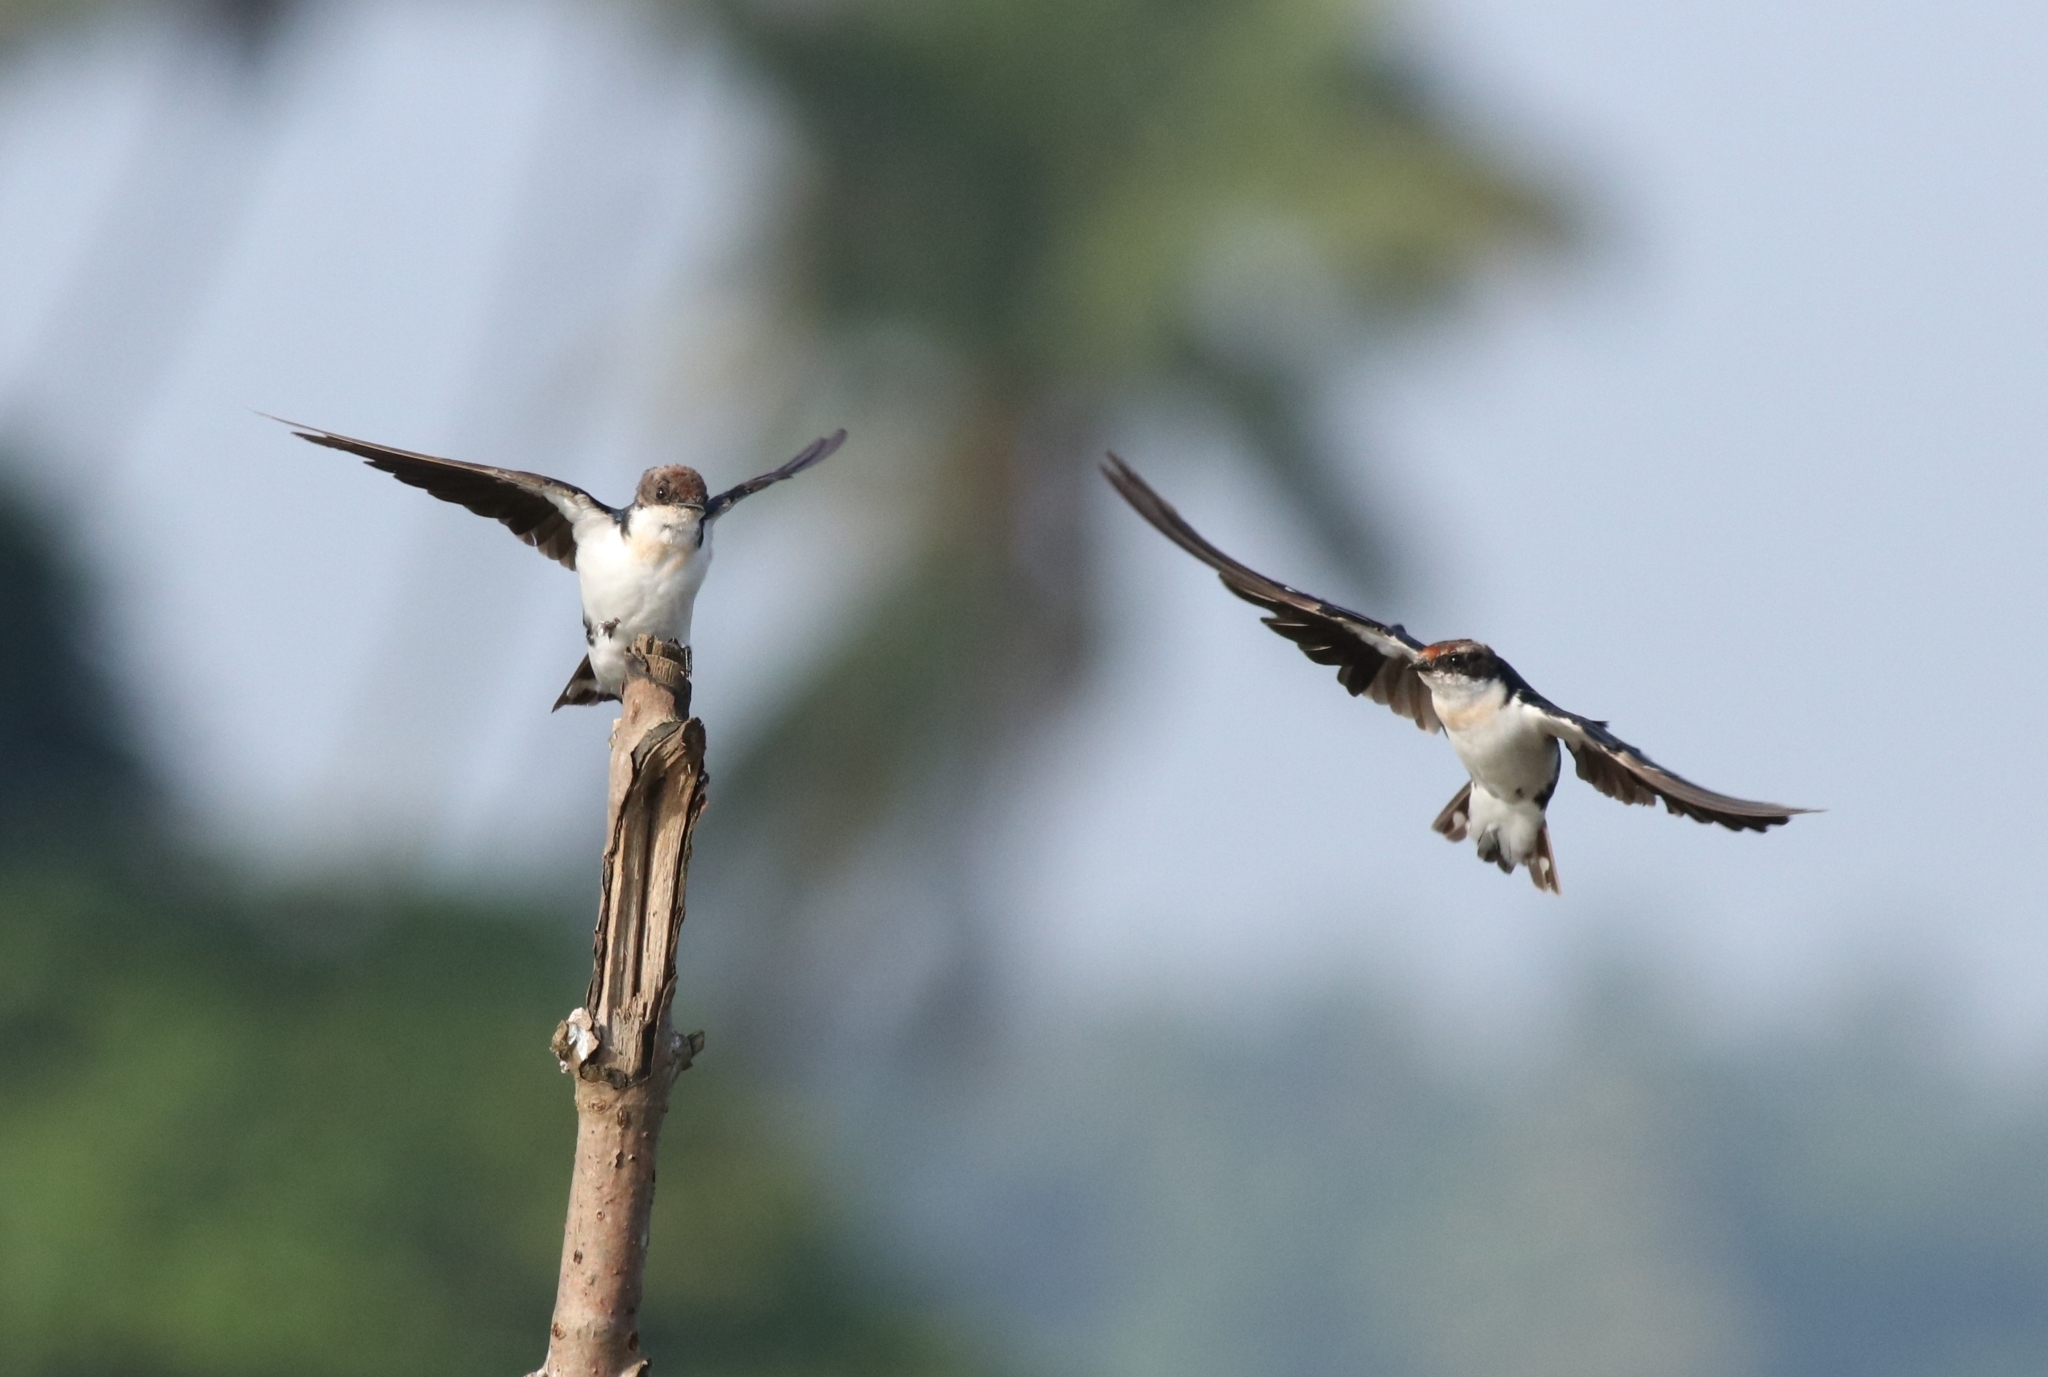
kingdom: Animalia
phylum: Chordata
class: Aves
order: Passeriformes
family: Hirundinidae
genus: Hirundo
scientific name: Hirundo smithii
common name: Wire-tailed swallow
